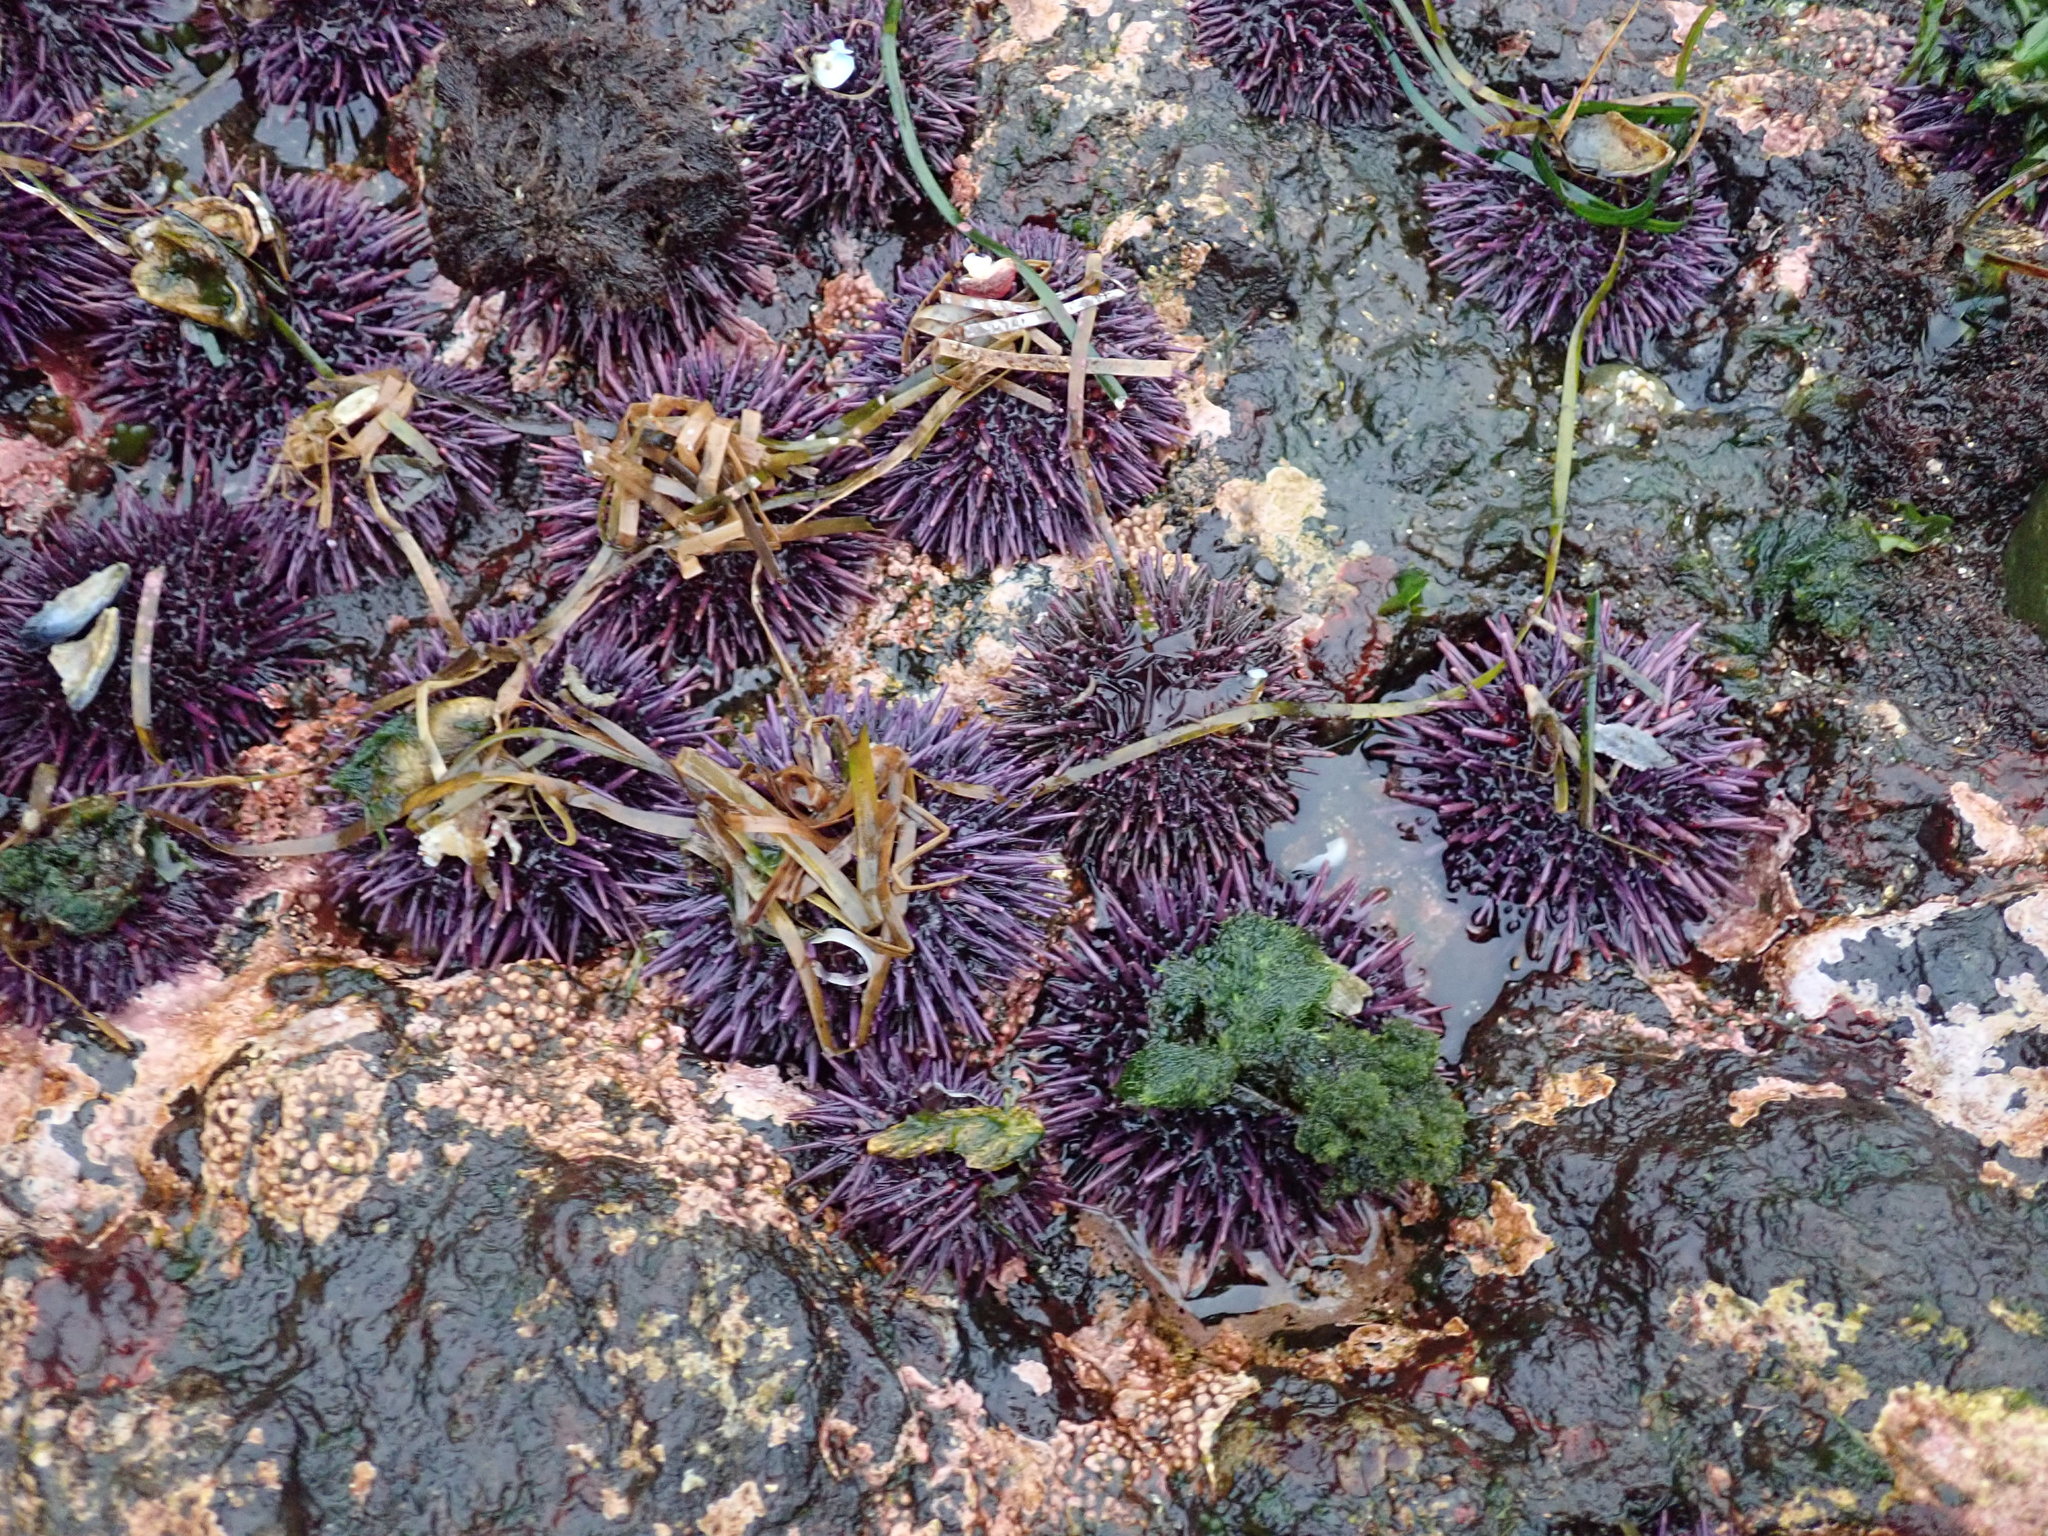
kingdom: Animalia
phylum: Echinodermata
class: Echinoidea
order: Camarodonta
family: Strongylocentrotidae
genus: Strongylocentrotus
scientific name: Strongylocentrotus purpuratus
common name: Purple sea urchin
